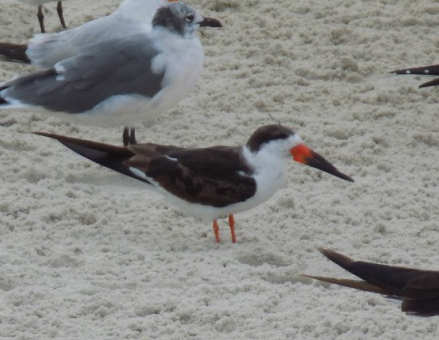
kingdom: Animalia
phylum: Chordata
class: Aves
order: Charadriiformes
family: Laridae
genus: Rynchops
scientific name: Rynchops niger
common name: Black skimmer
